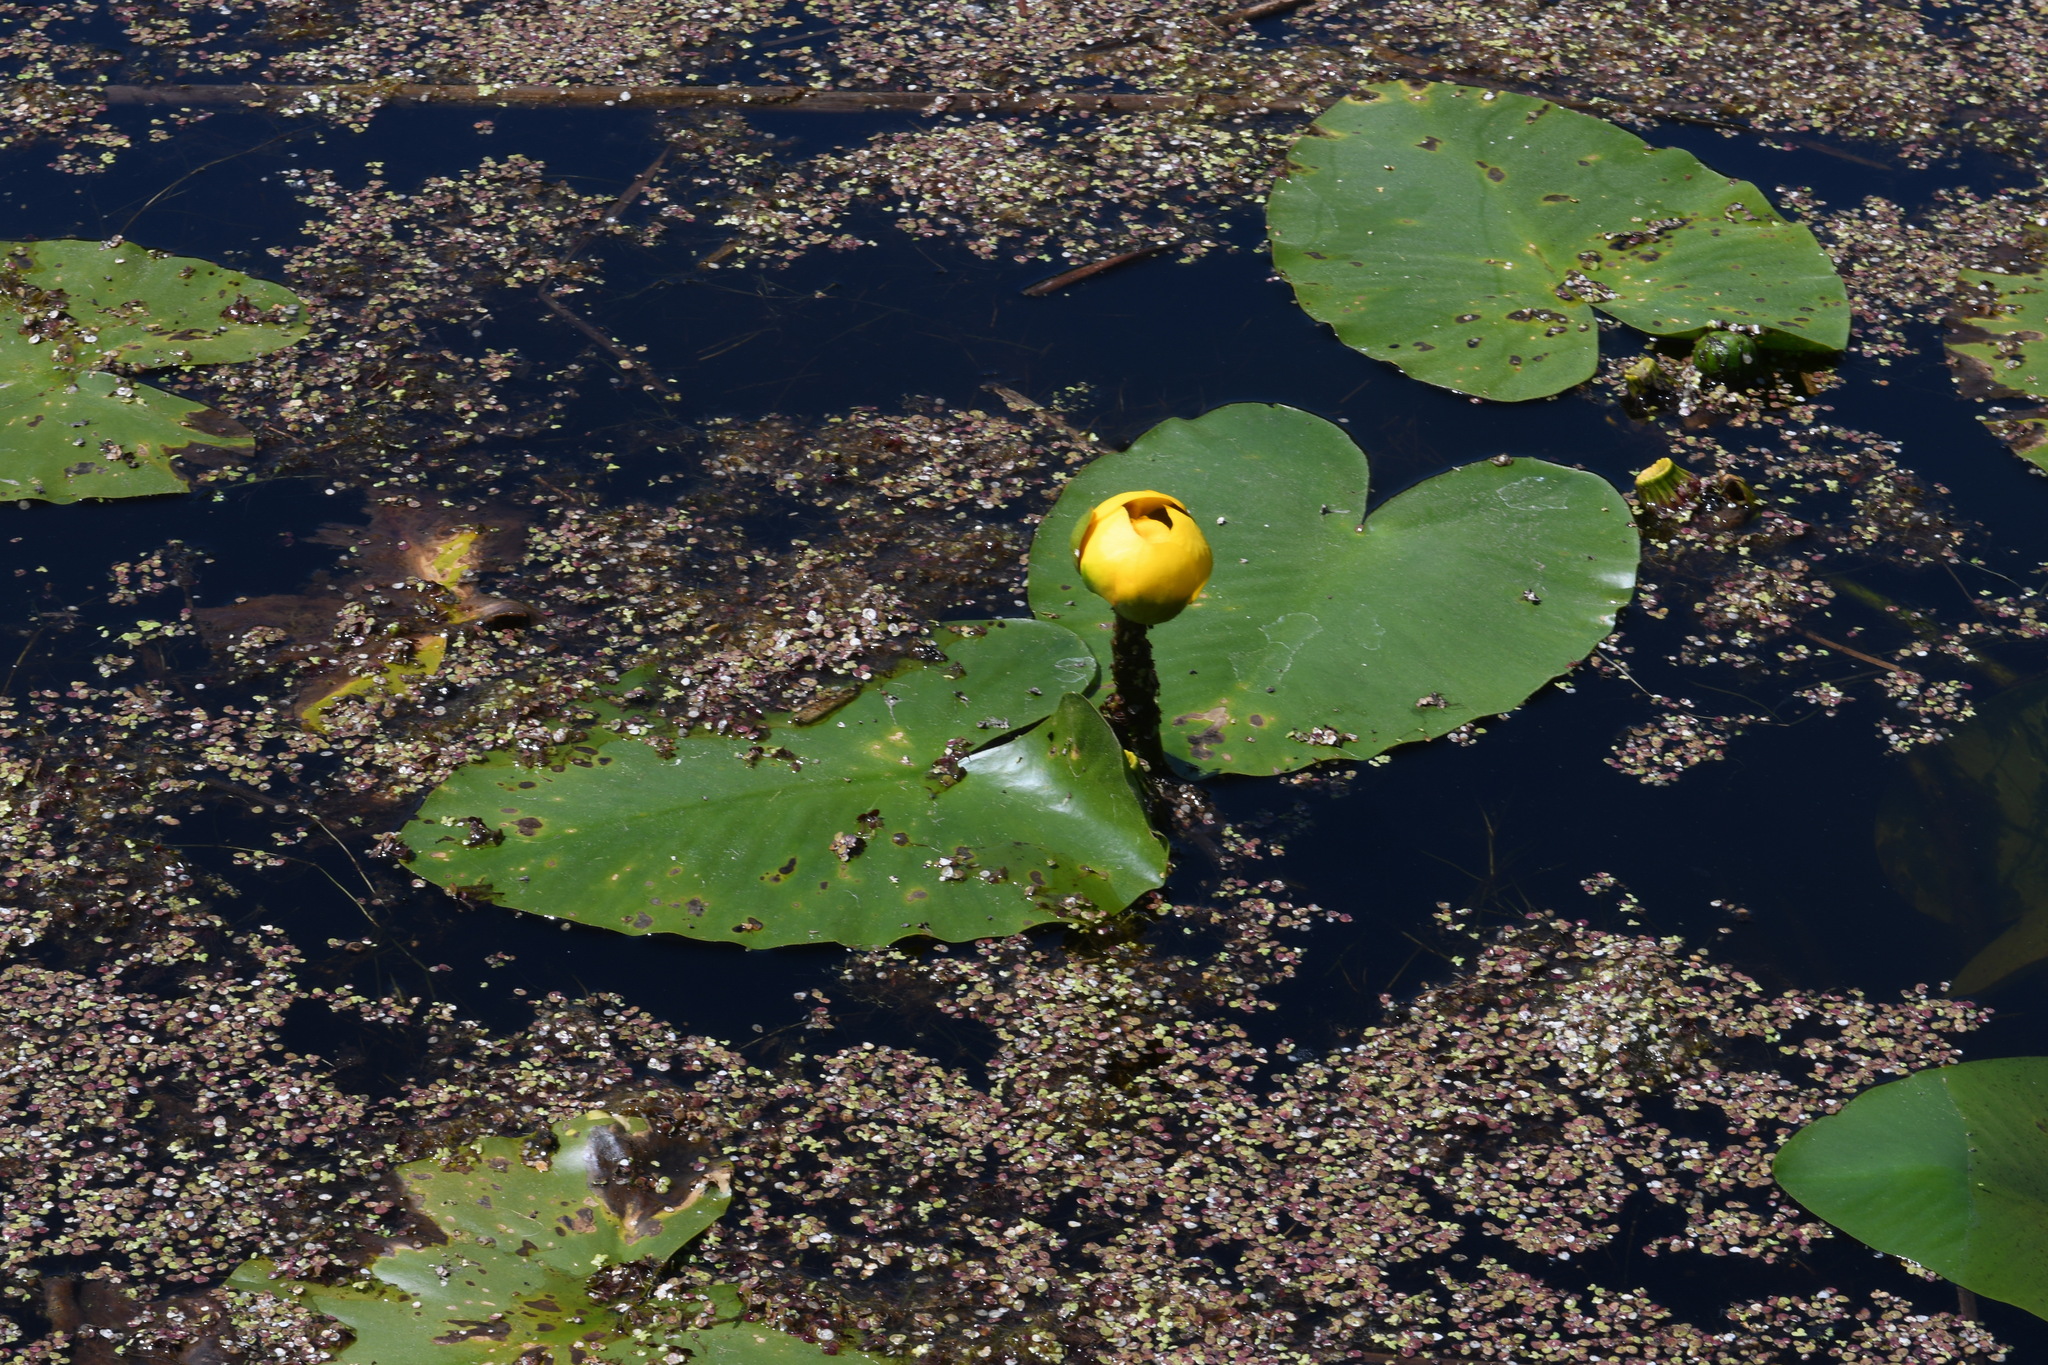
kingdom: Plantae
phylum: Tracheophyta
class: Magnoliopsida
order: Nymphaeales
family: Nymphaeaceae
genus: Nuphar
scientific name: Nuphar variegata
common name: Beaver-root
